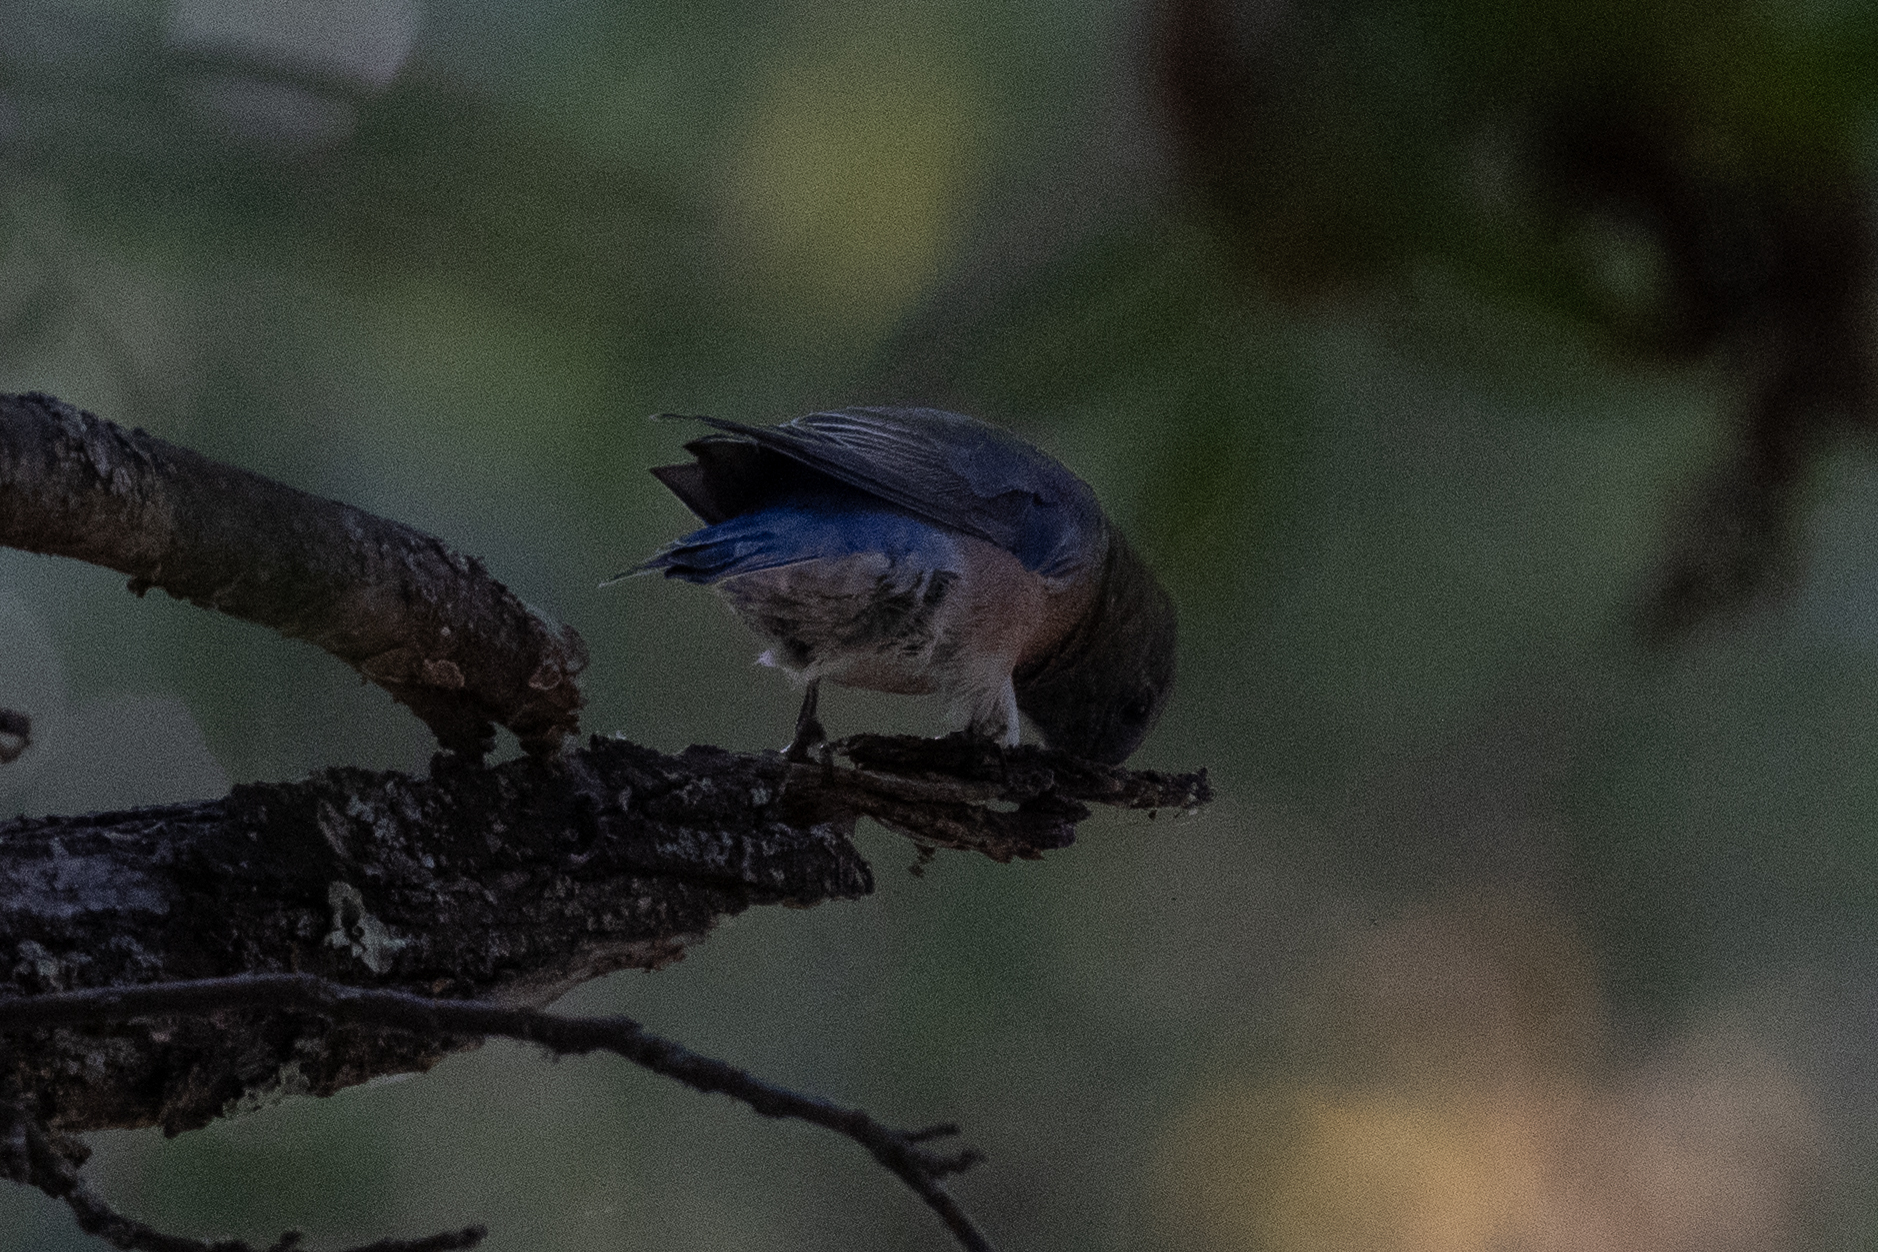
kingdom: Animalia
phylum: Chordata
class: Aves
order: Passeriformes
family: Turdidae
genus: Sialia
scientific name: Sialia mexicana
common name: Western bluebird
